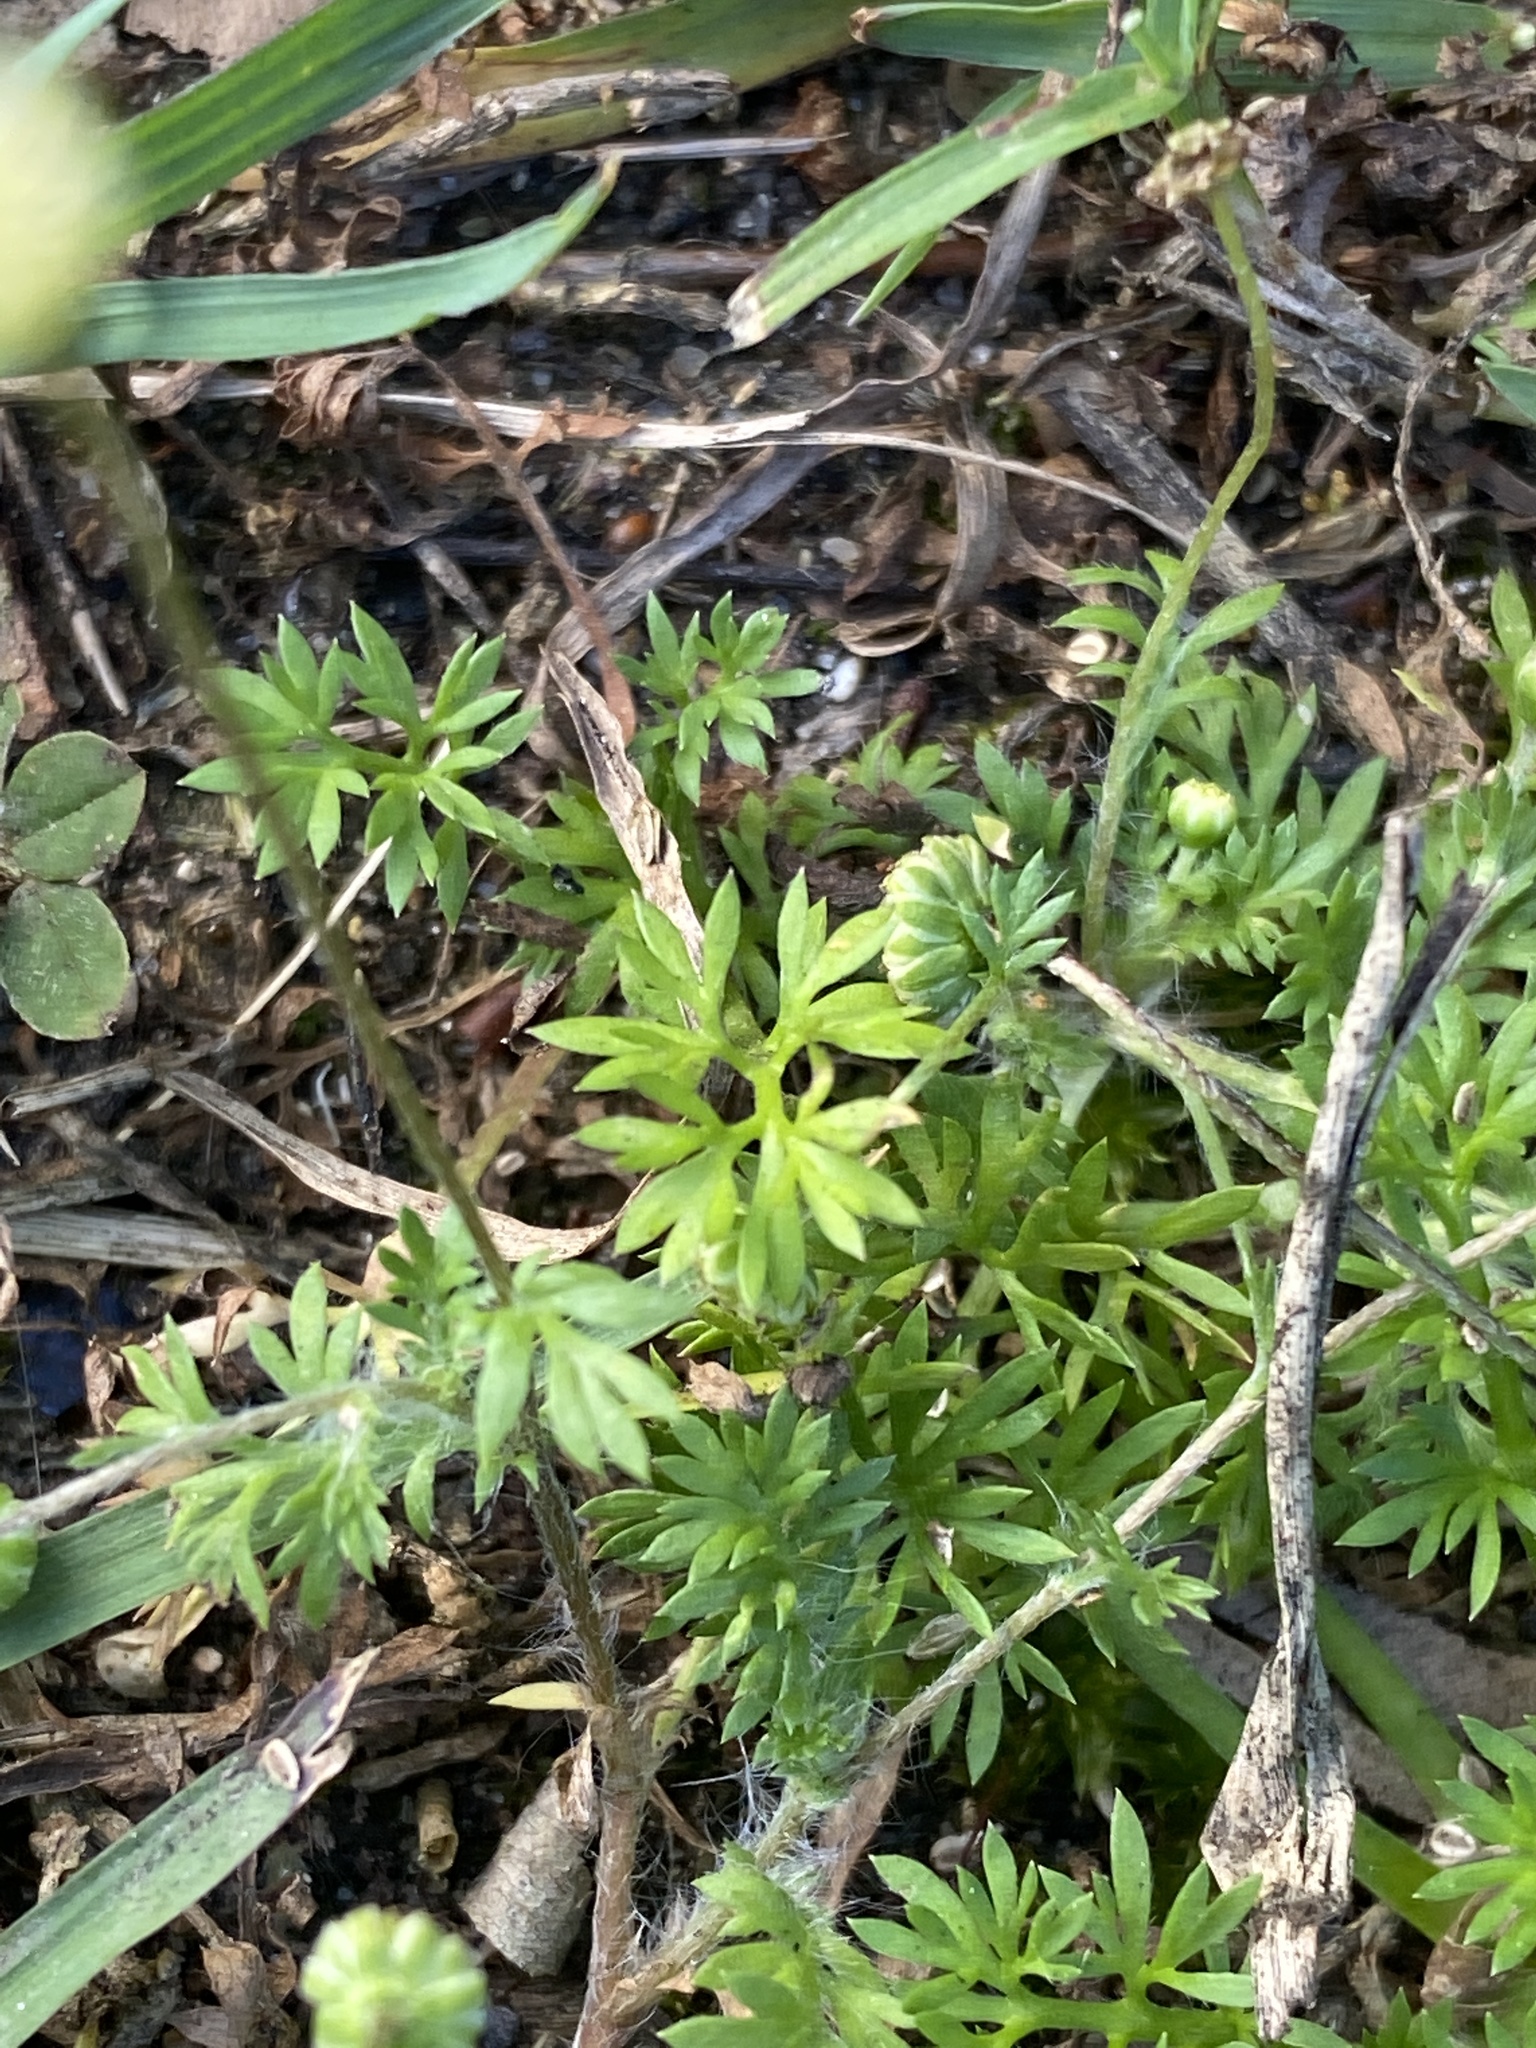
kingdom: Plantae
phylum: Tracheophyta
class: Magnoliopsida
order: Asterales
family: Asteraceae
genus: Cotula
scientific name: Cotula australis
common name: Australian waterbuttons
